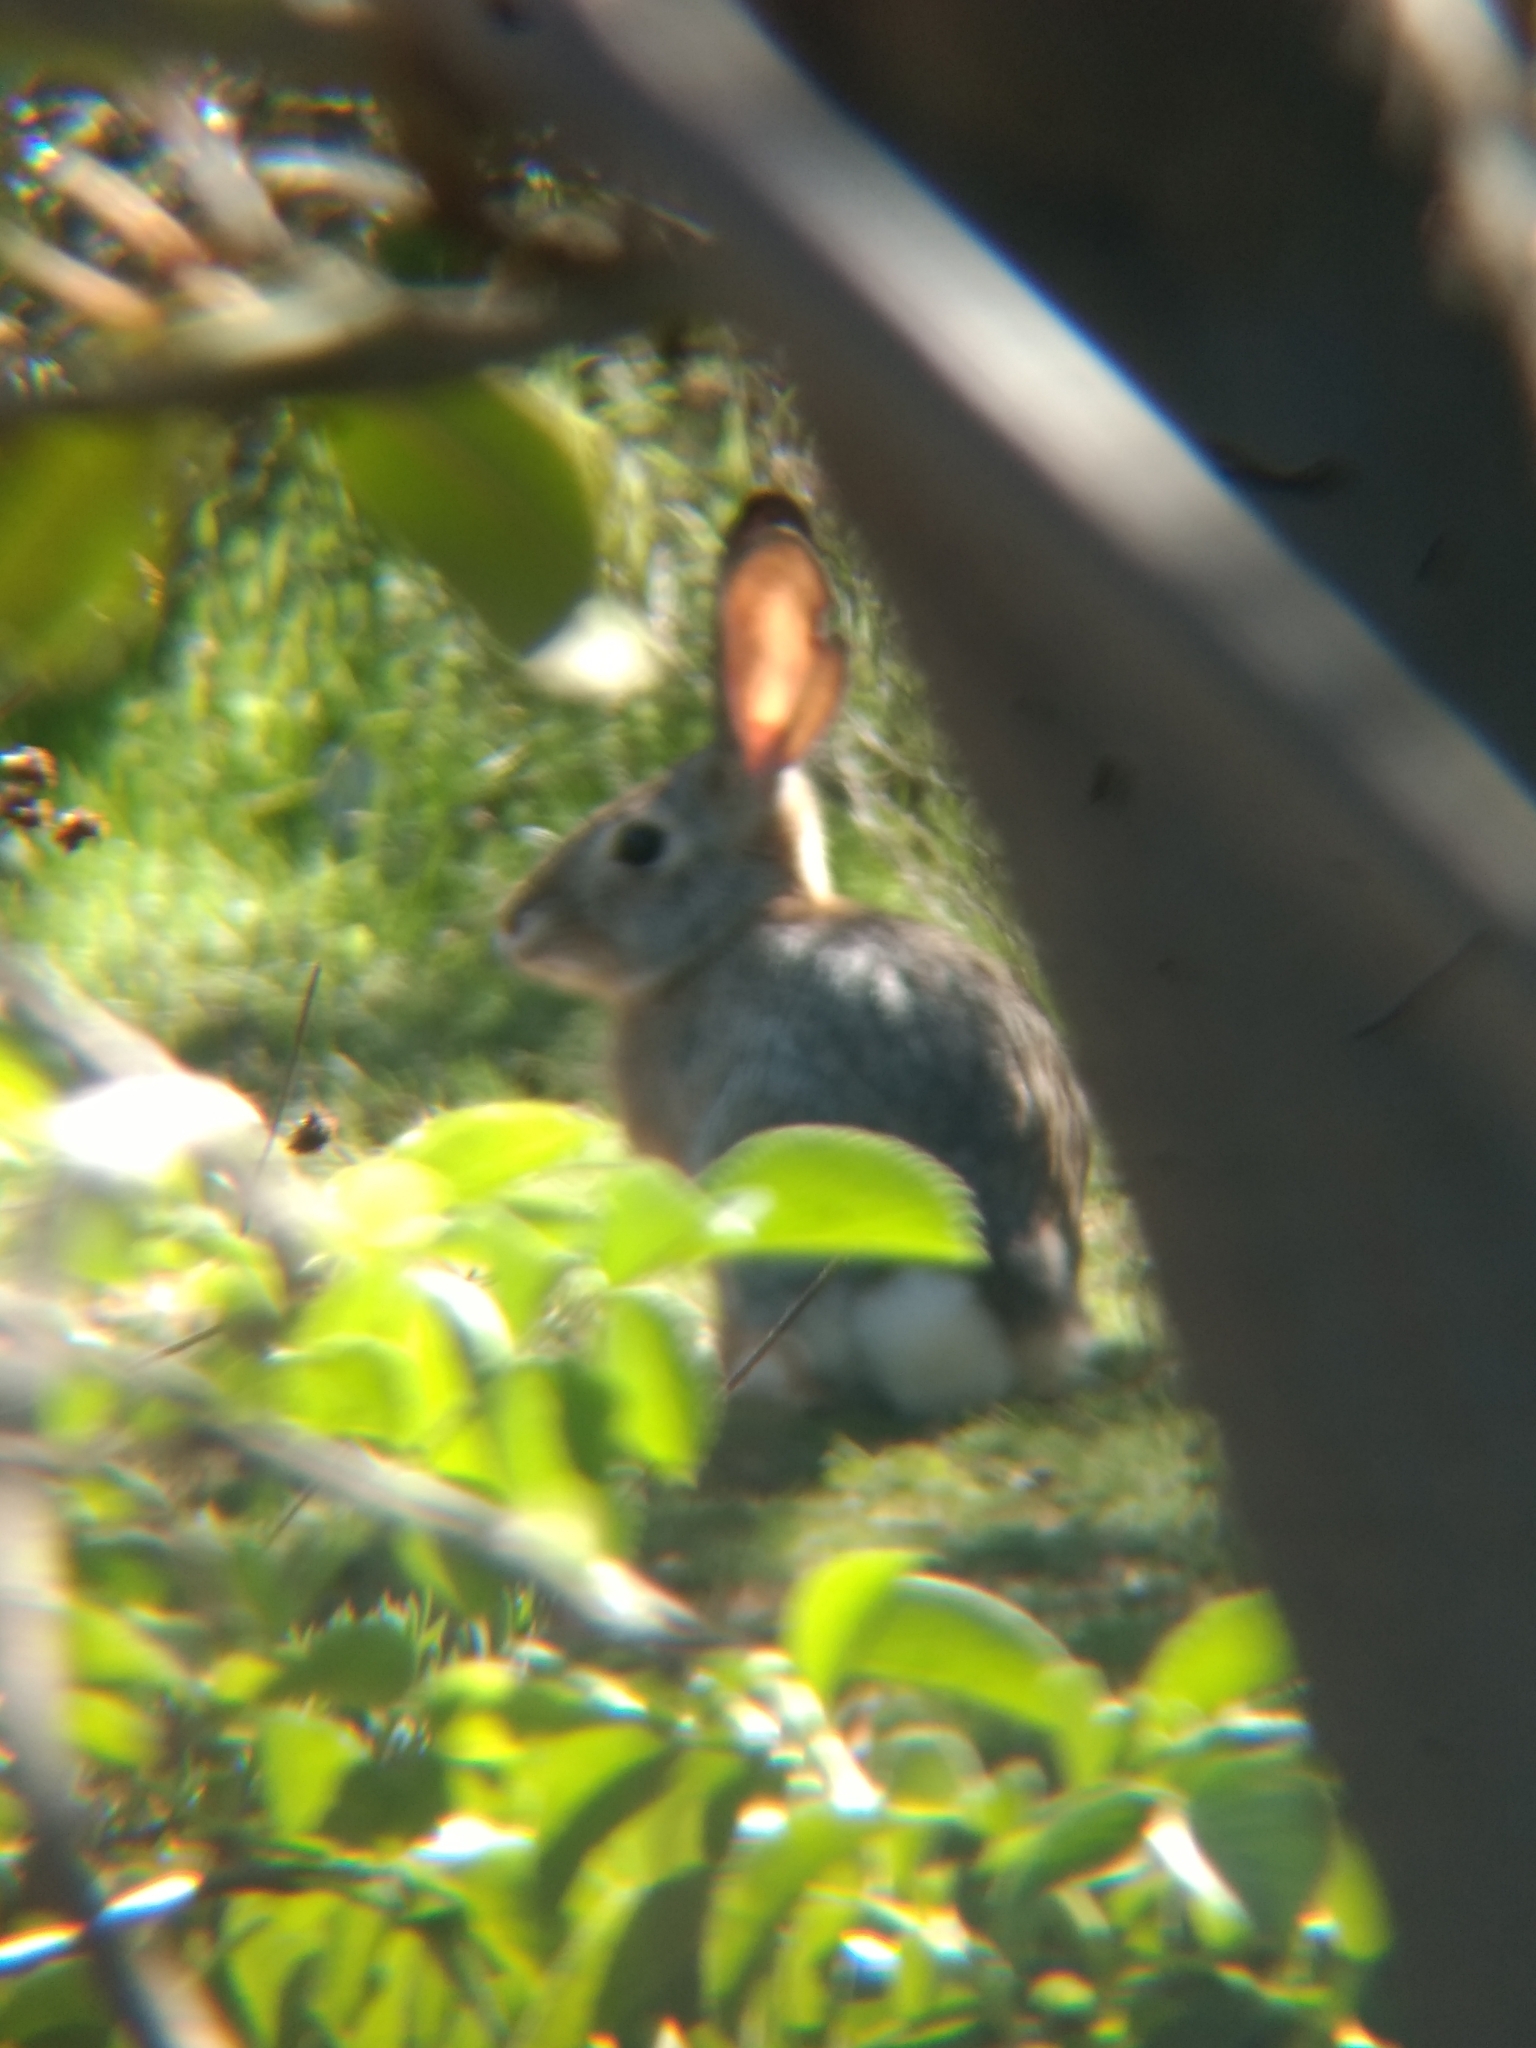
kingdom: Animalia
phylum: Chordata
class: Mammalia
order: Lagomorpha
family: Leporidae
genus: Sylvilagus
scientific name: Sylvilagus audubonii
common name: Desert cottontail
